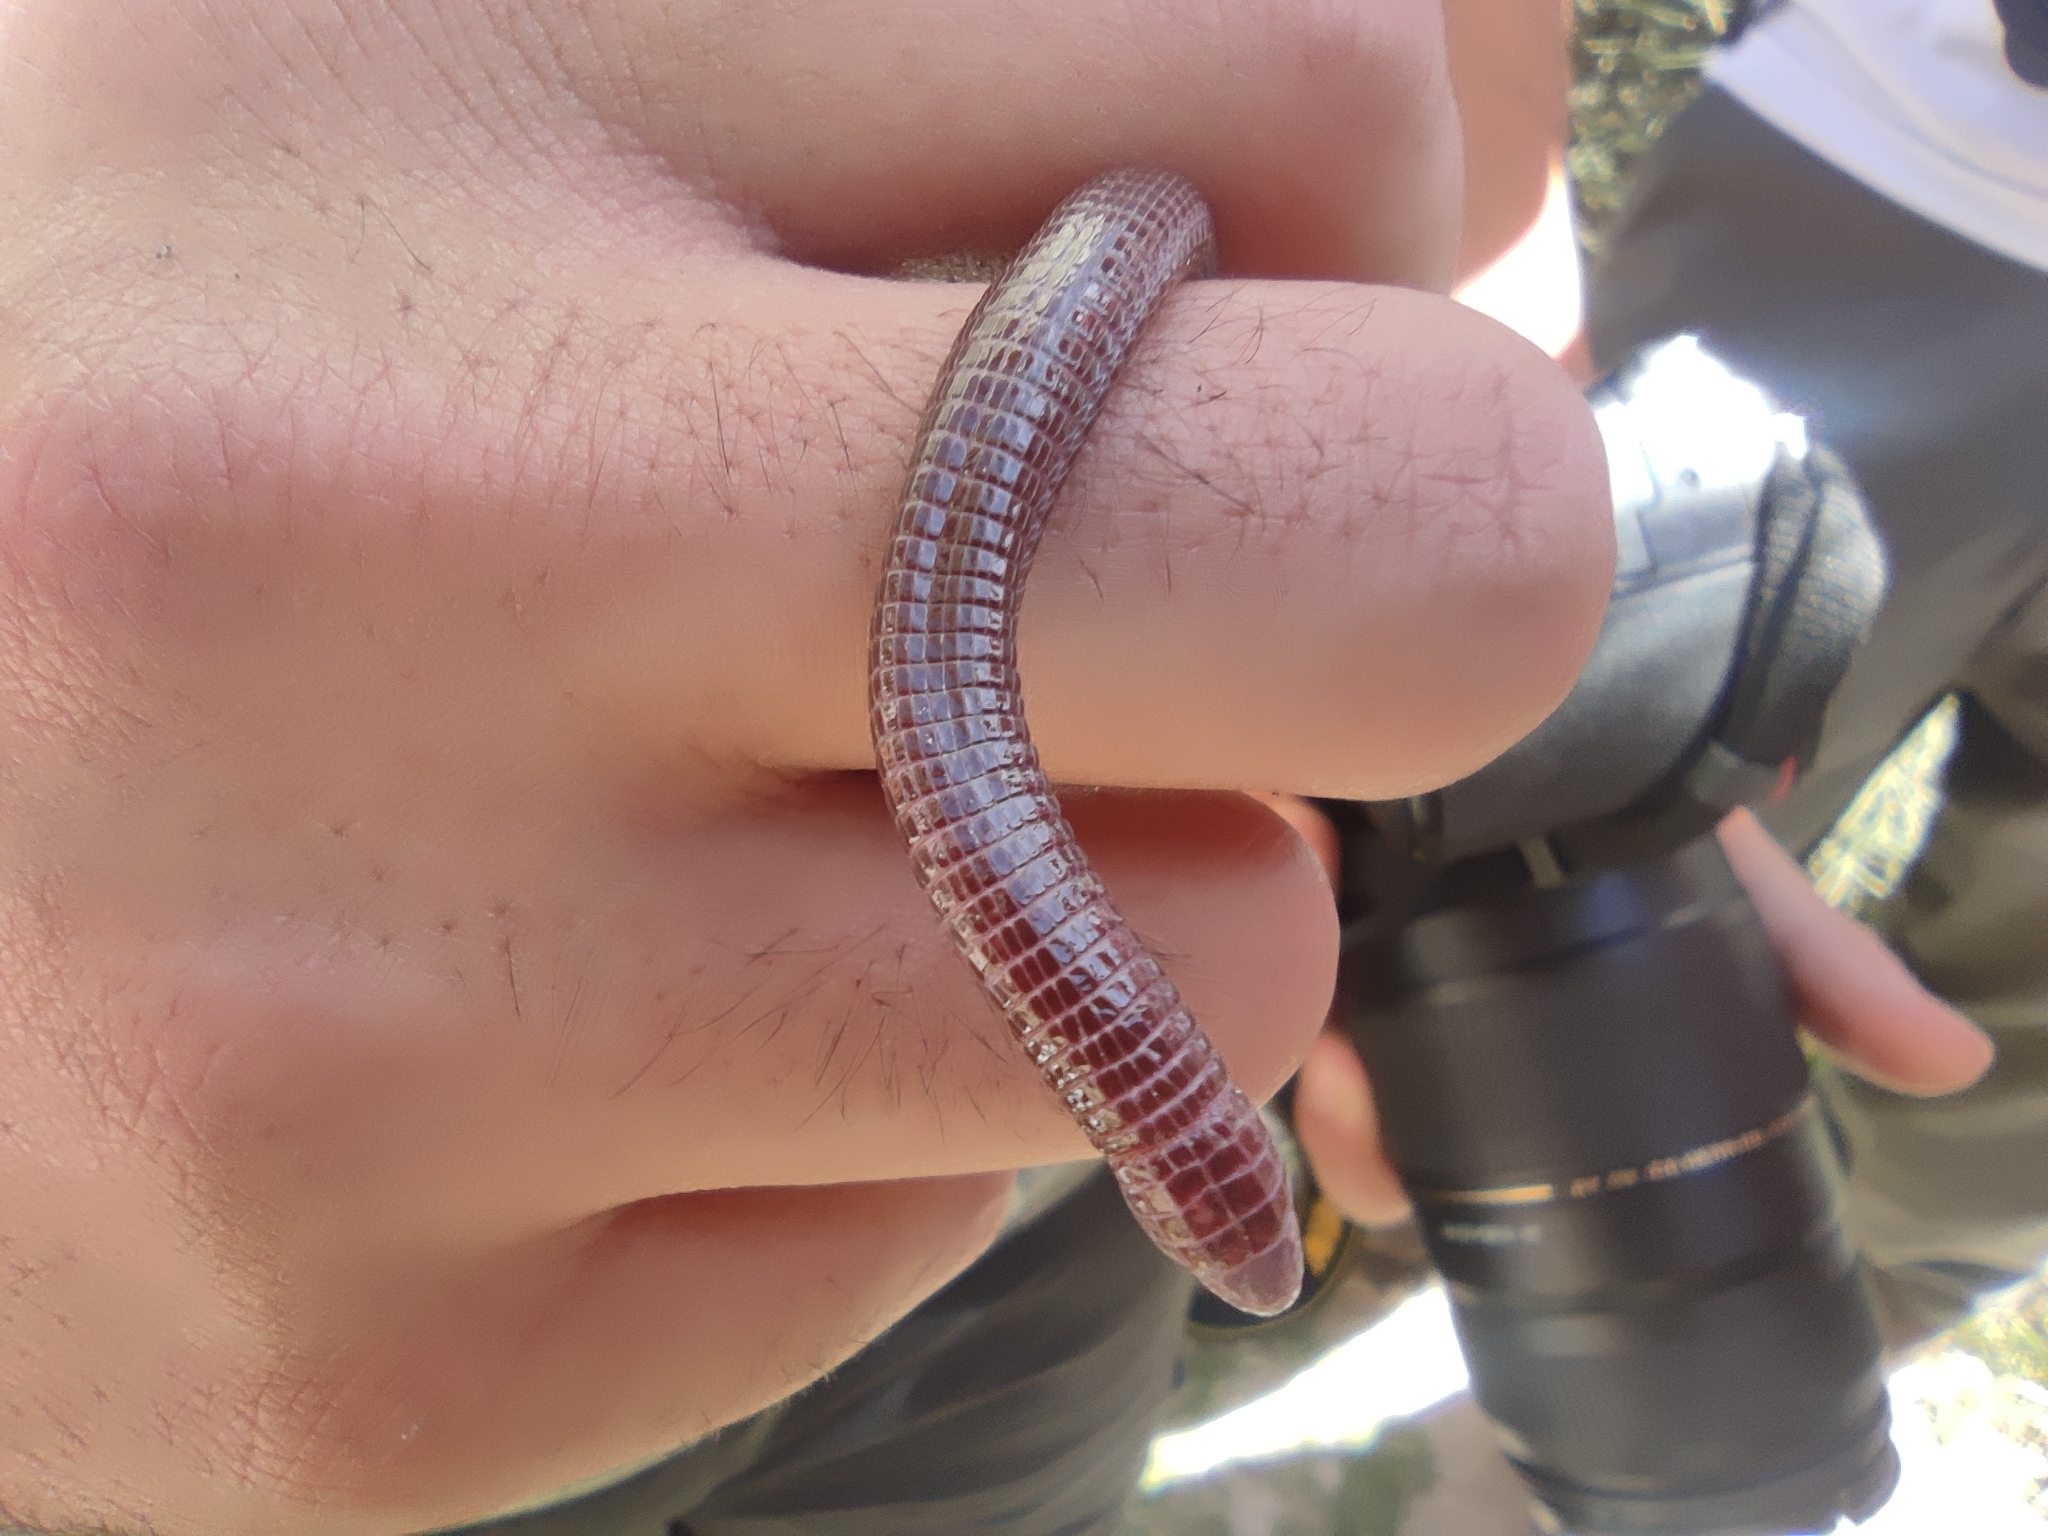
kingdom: Animalia
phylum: Chordata
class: Squamata
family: Blanidae
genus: Blanus
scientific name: Blanus vandellii
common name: Vandelli's worm lizard
